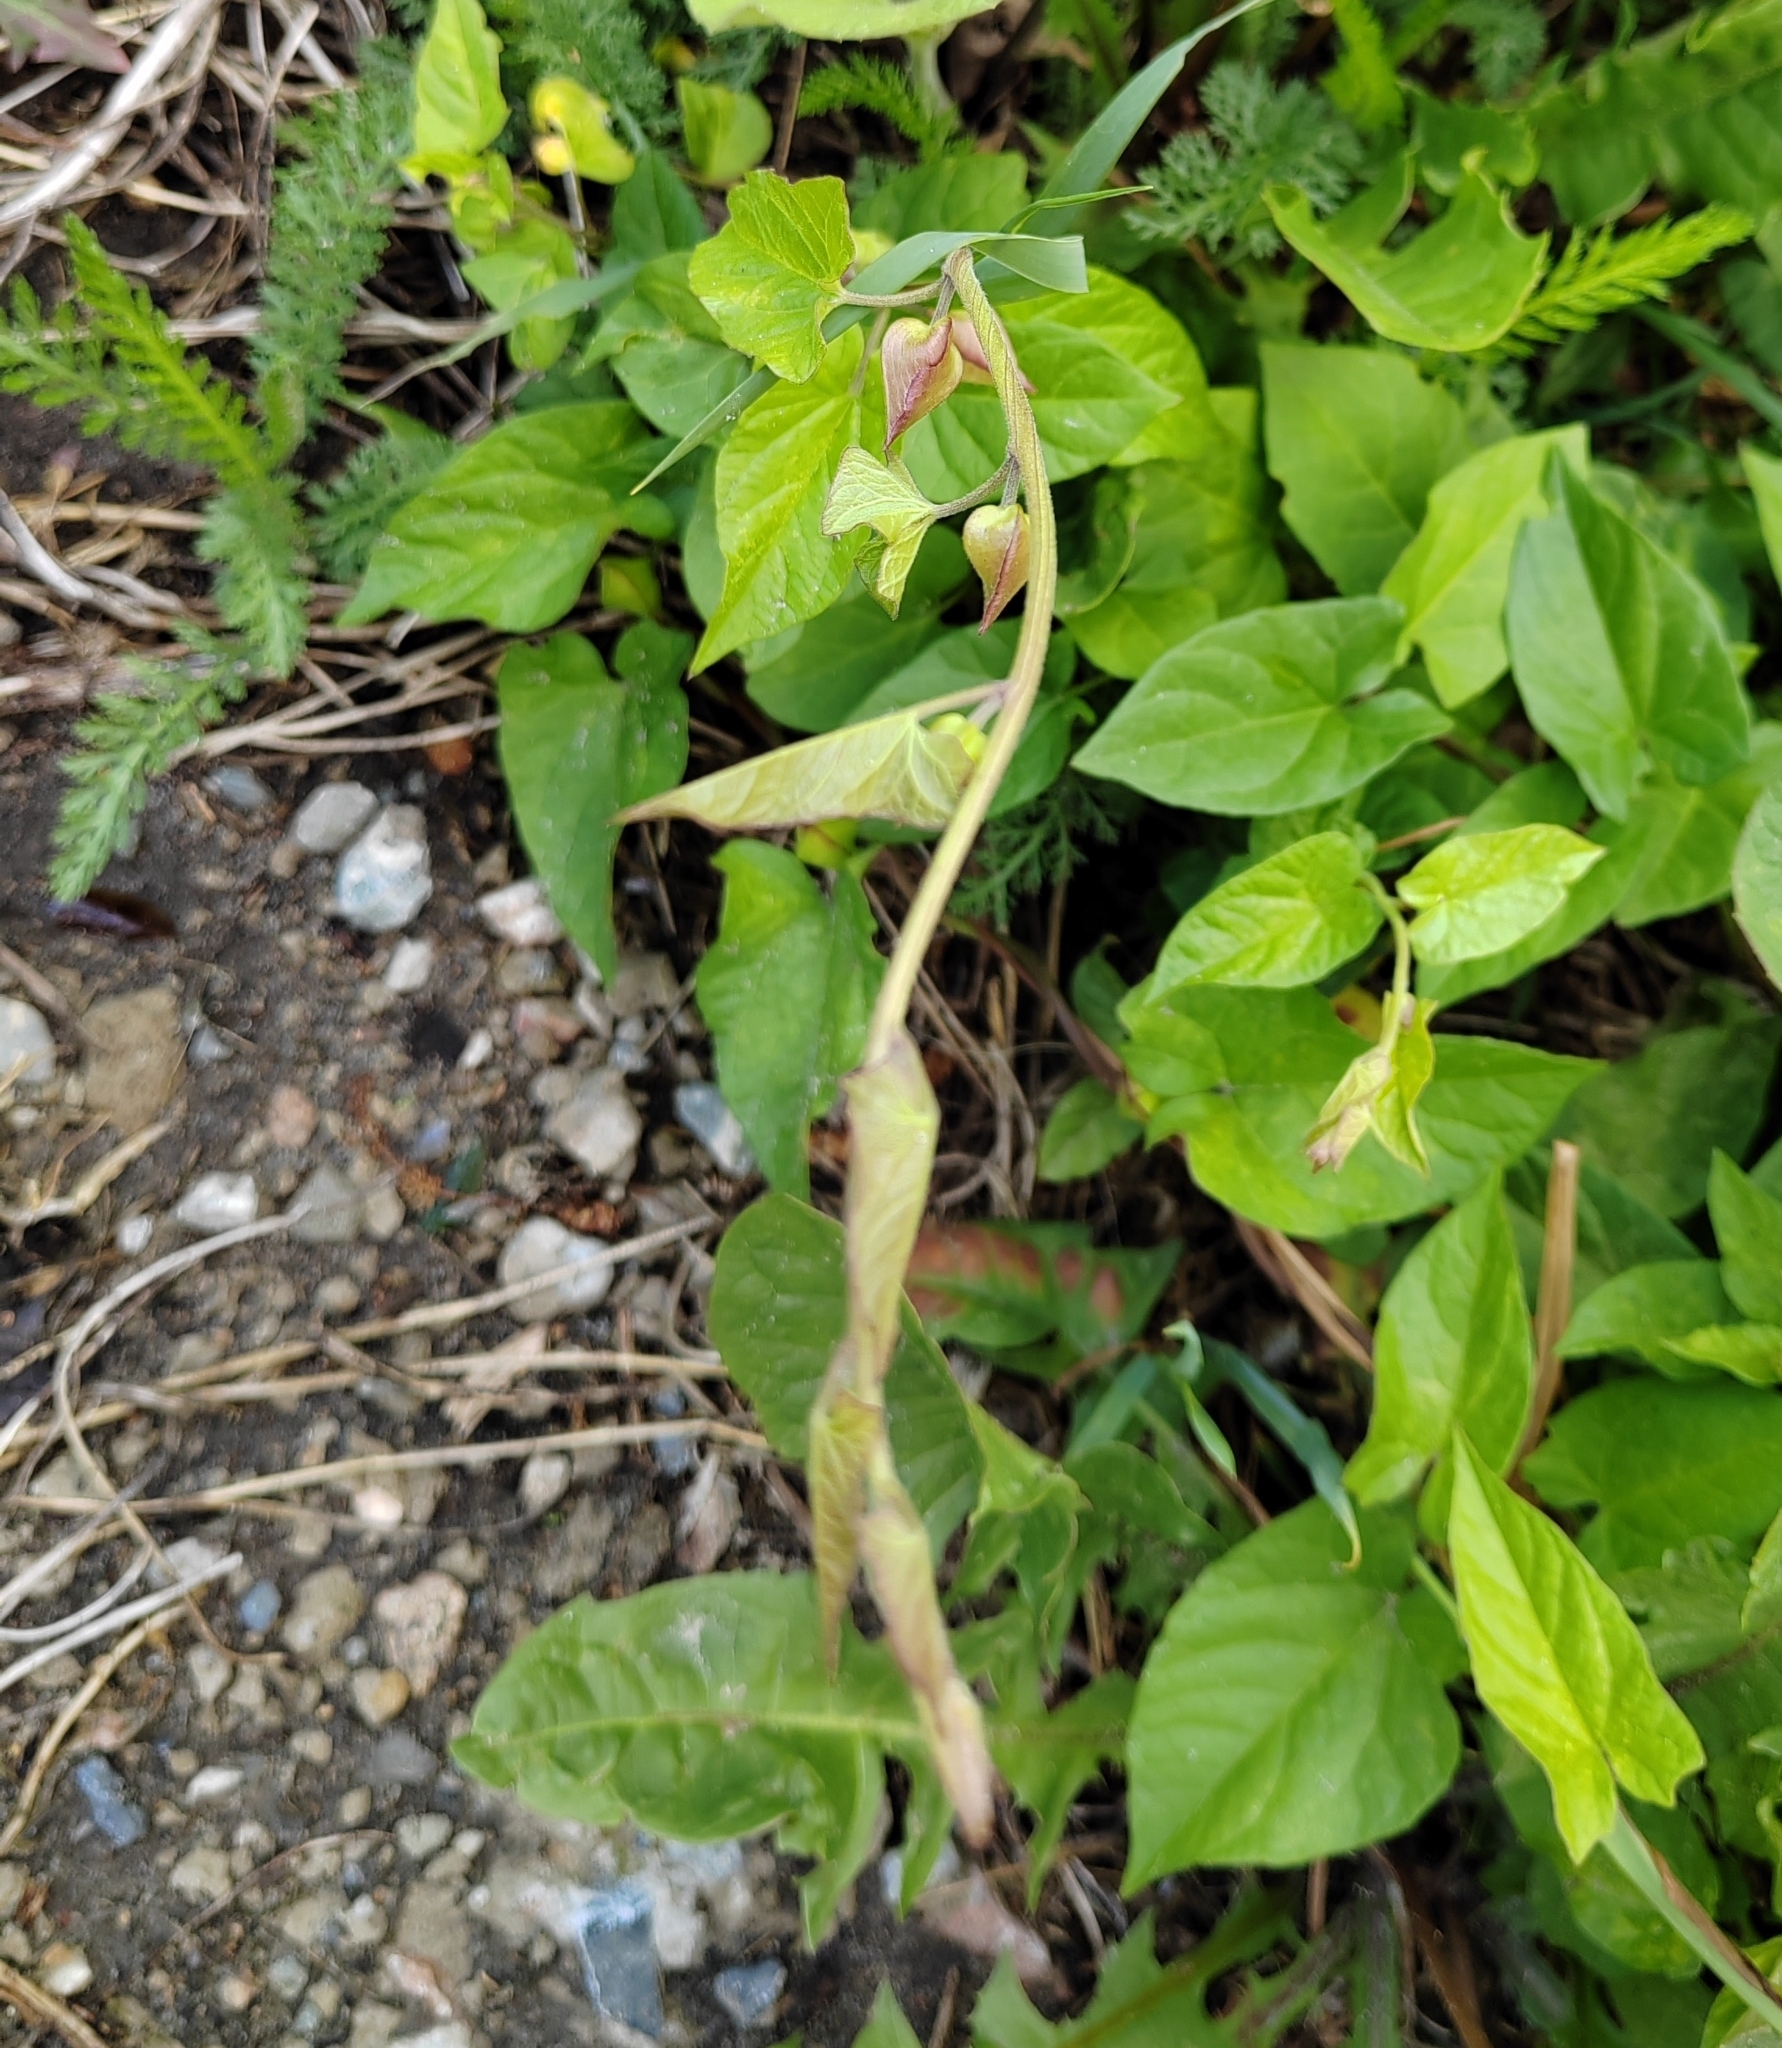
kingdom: Plantae
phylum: Tracheophyta
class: Magnoliopsida
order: Solanales
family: Convolvulaceae
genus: Calystegia
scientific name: Calystegia sepium
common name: Hedge bindweed
